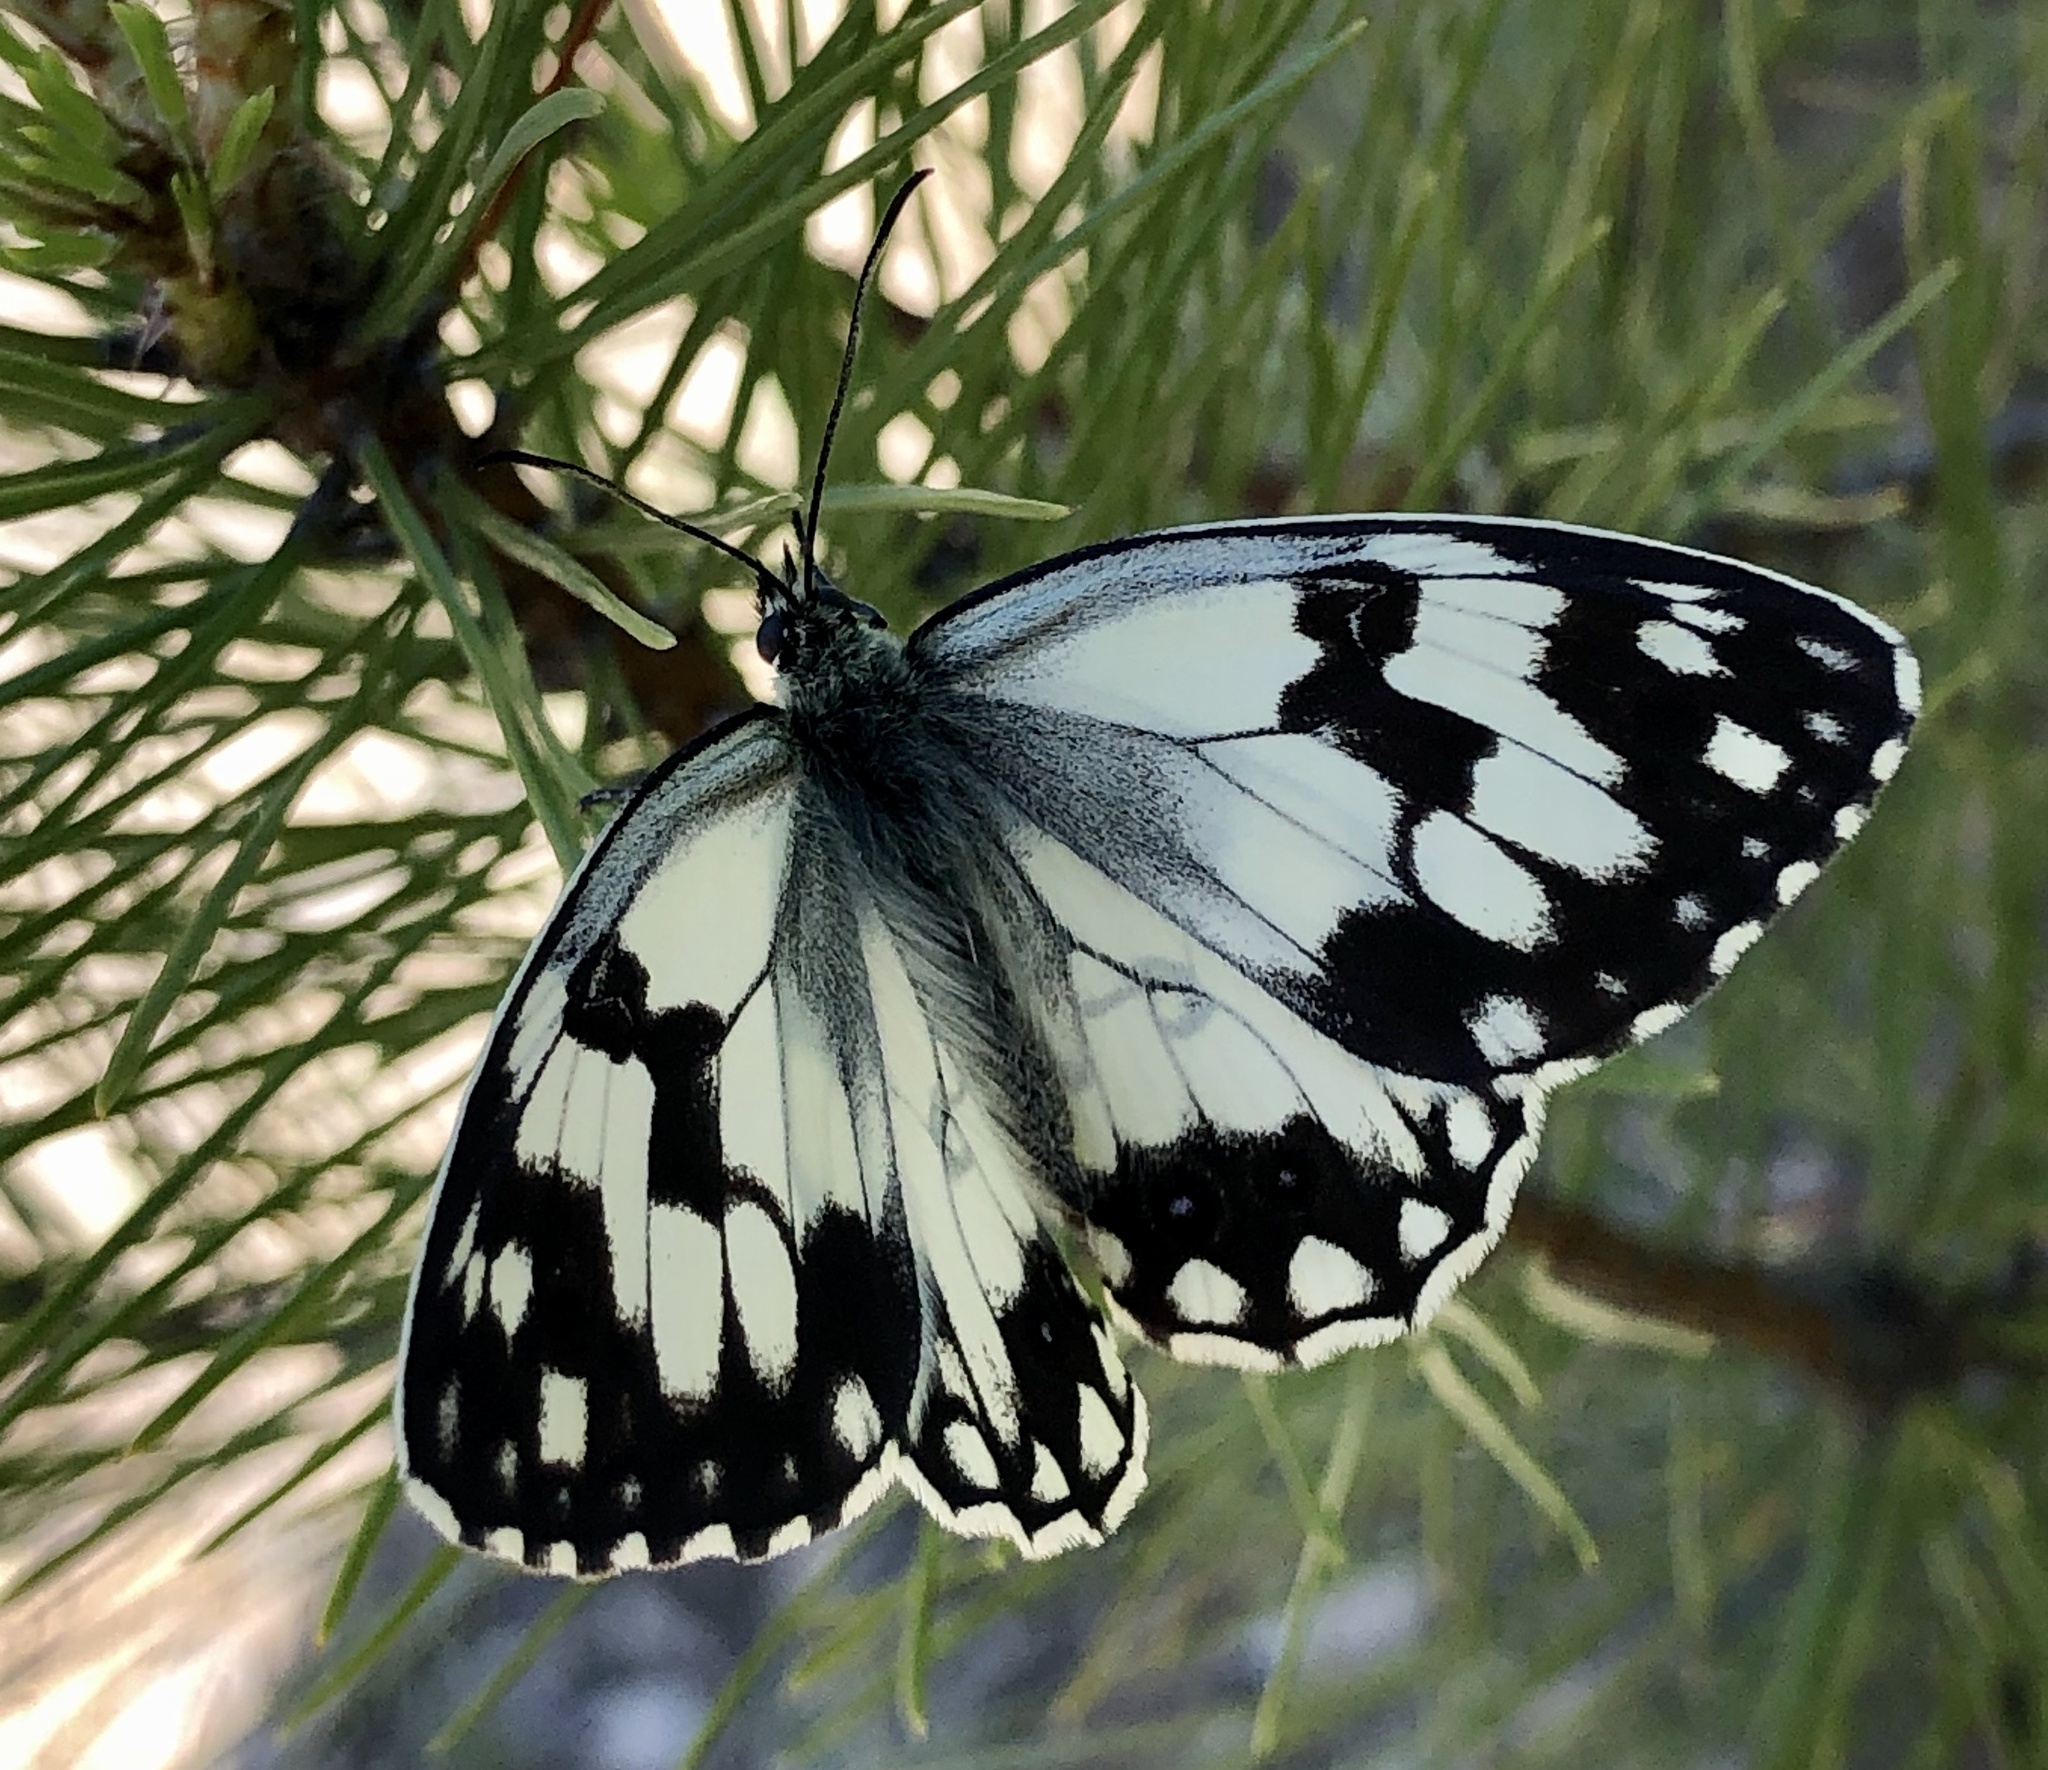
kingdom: Animalia
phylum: Arthropoda
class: Insecta
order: Lepidoptera
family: Nymphalidae
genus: Melanargia
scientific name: Melanargia lachesis
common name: Iberian marbled white
